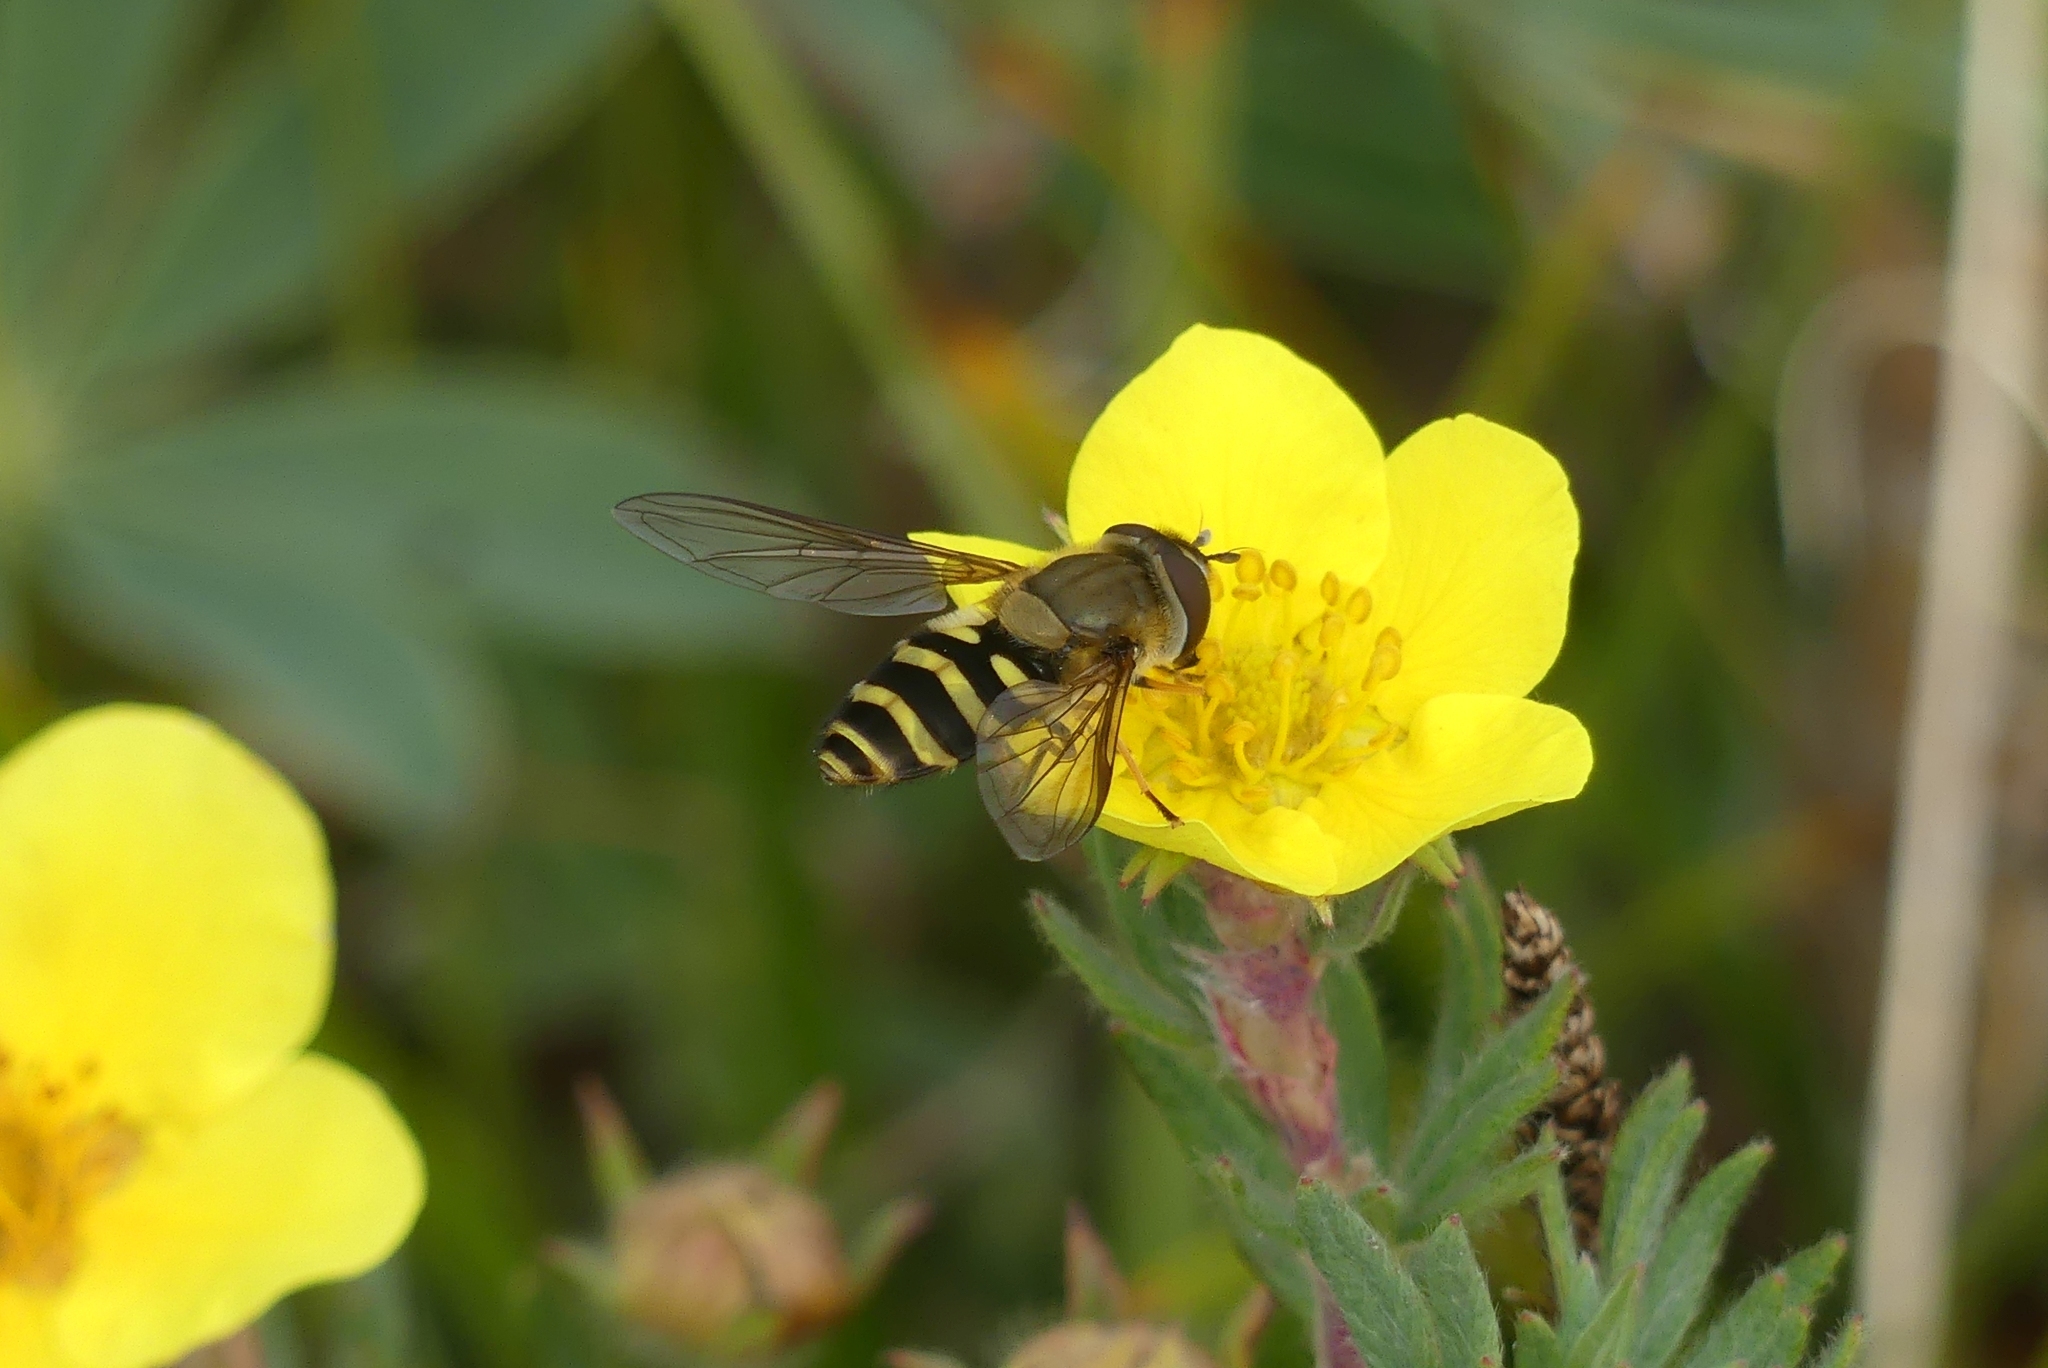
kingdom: Animalia
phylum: Arthropoda
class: Insecta
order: Diptera
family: Syrphidae
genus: Syrphus
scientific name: Syrphus
